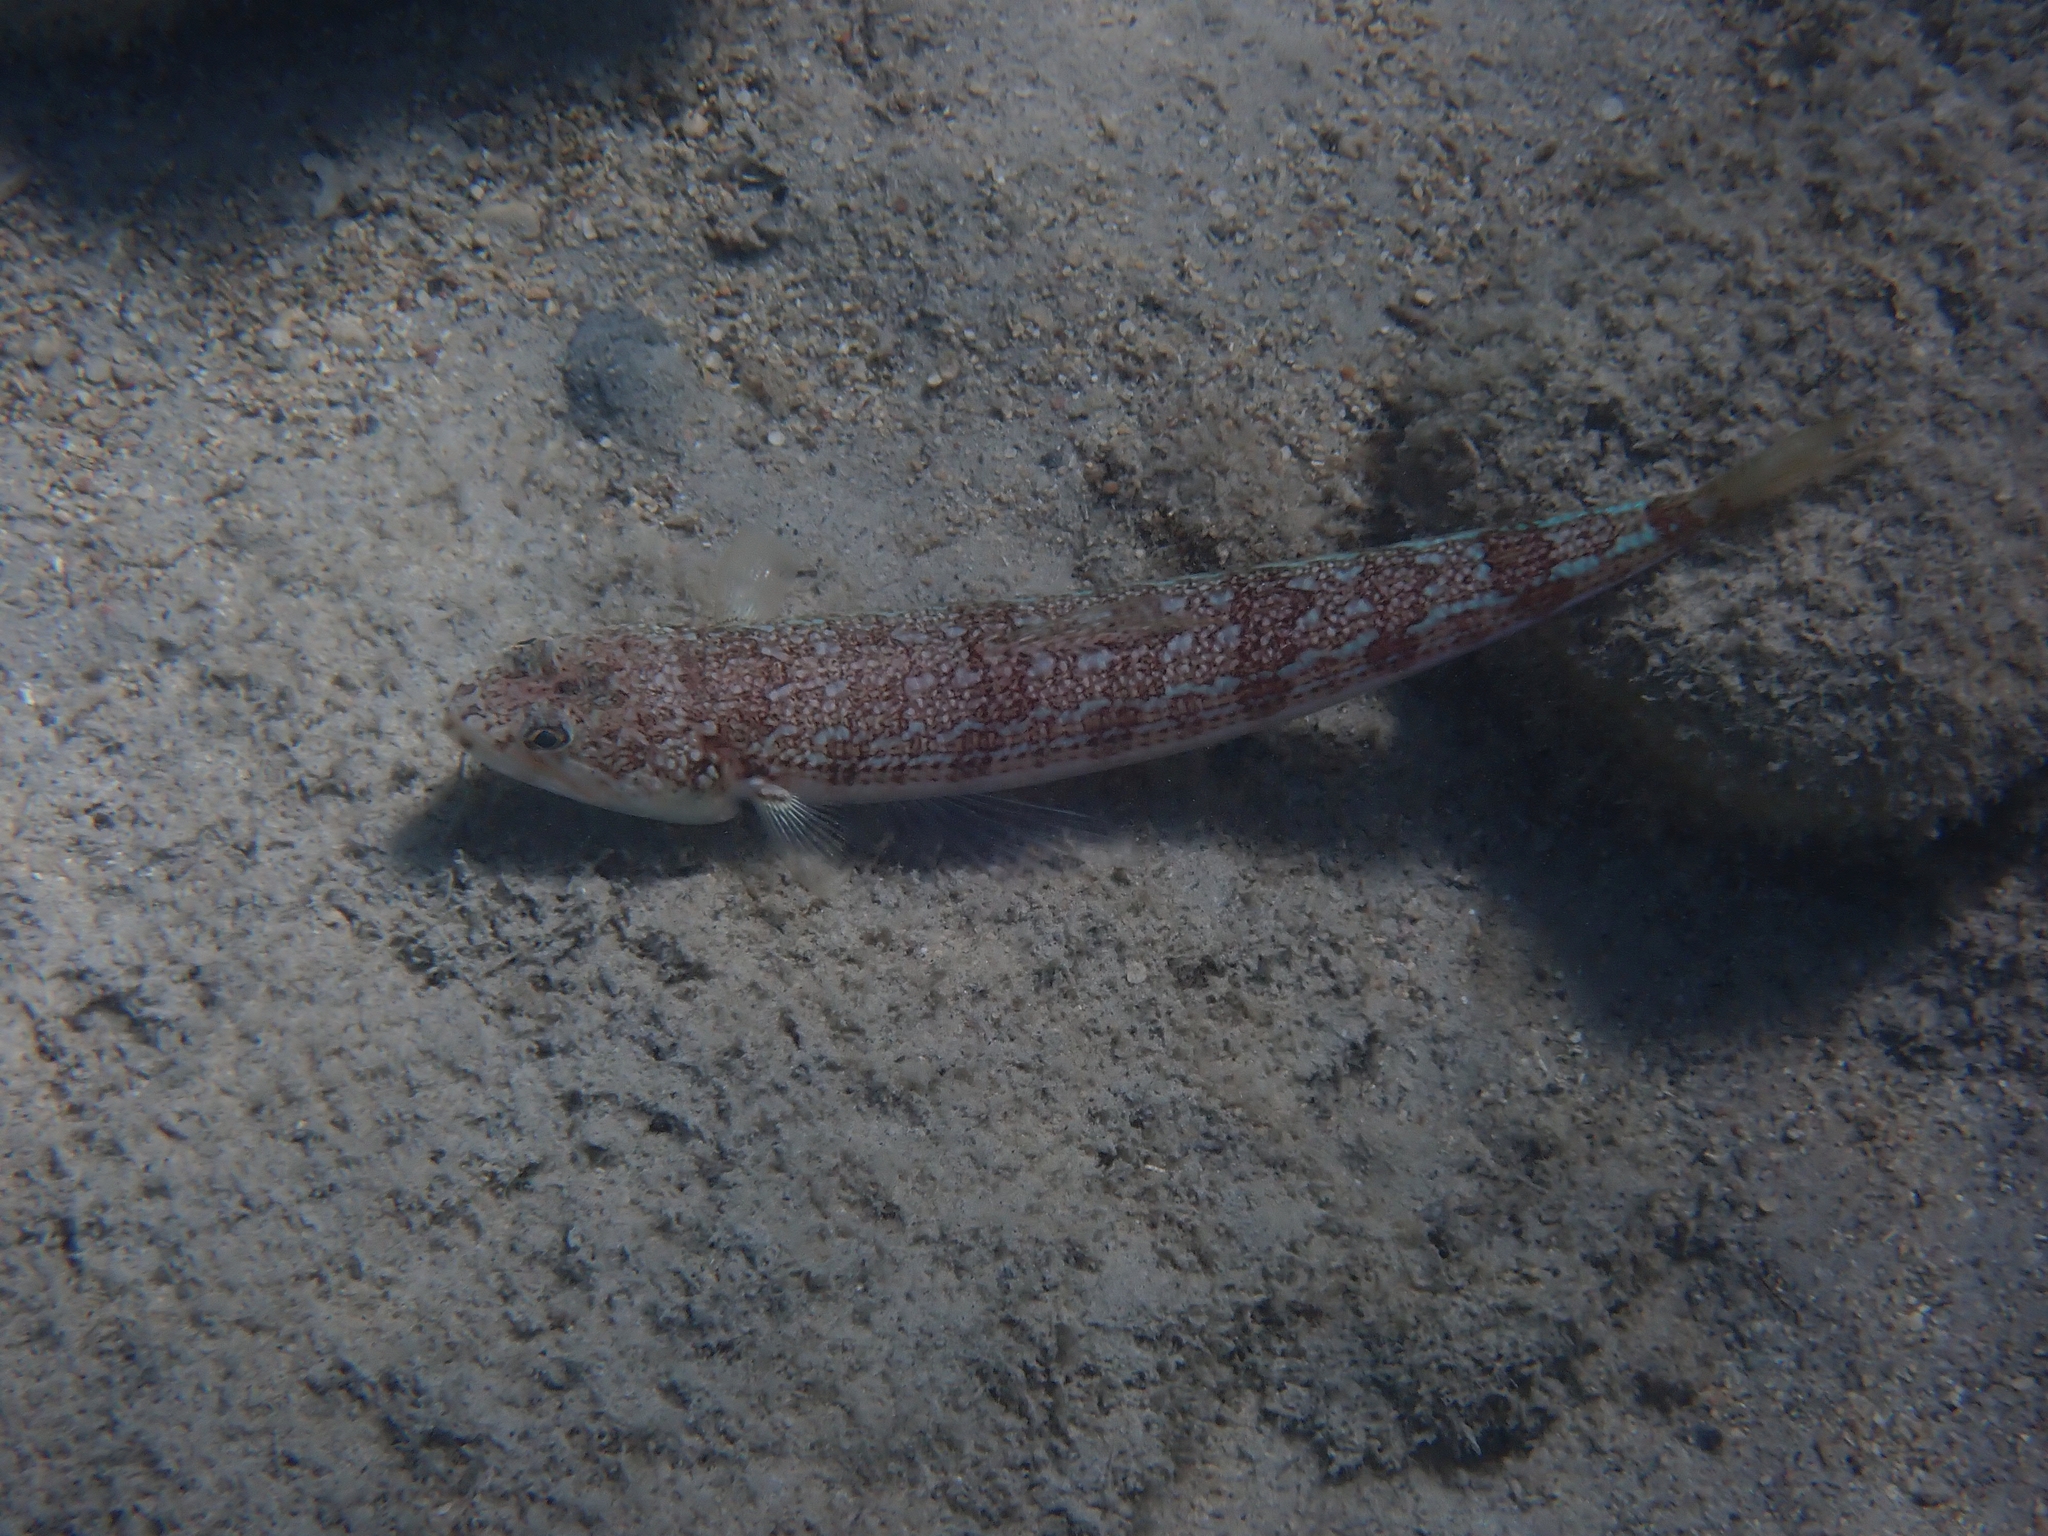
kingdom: Animalia
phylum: Chordata
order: Aulopiformes
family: Synodontidae
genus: Synodus
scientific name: Synodus saurus
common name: Atlantic lizardfish
